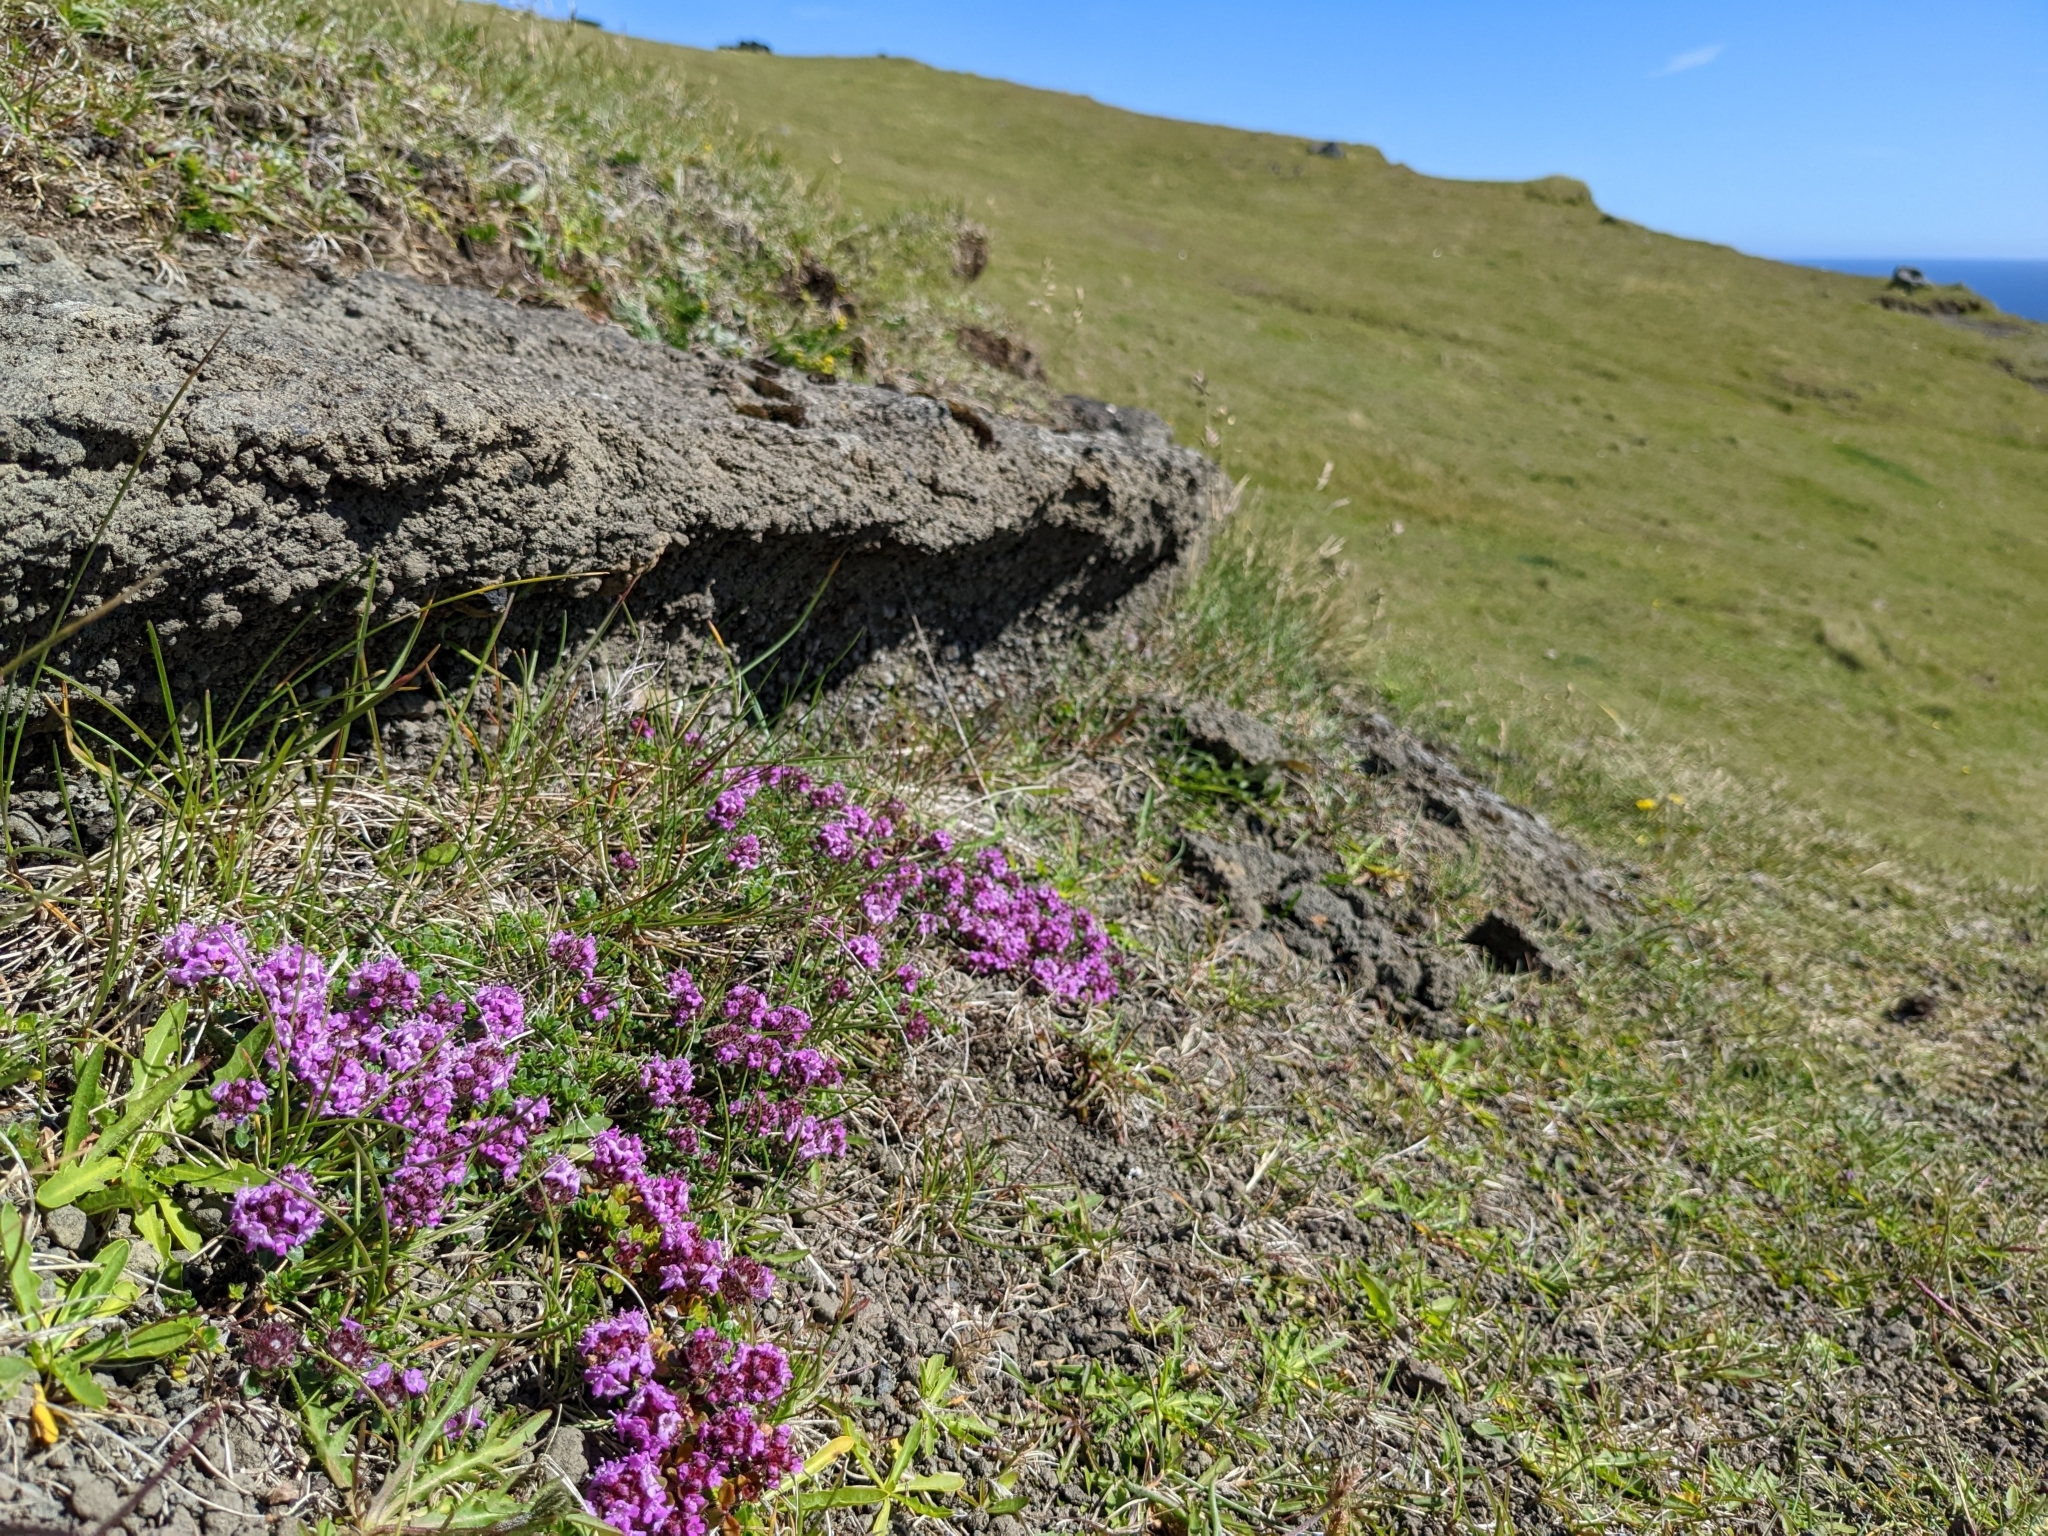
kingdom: Plantae
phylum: Tracheophyta
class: Magnoliopsida
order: Lamiales
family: Lamiaceae
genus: Thymus
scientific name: Thymus praecox
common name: Wild thyme
